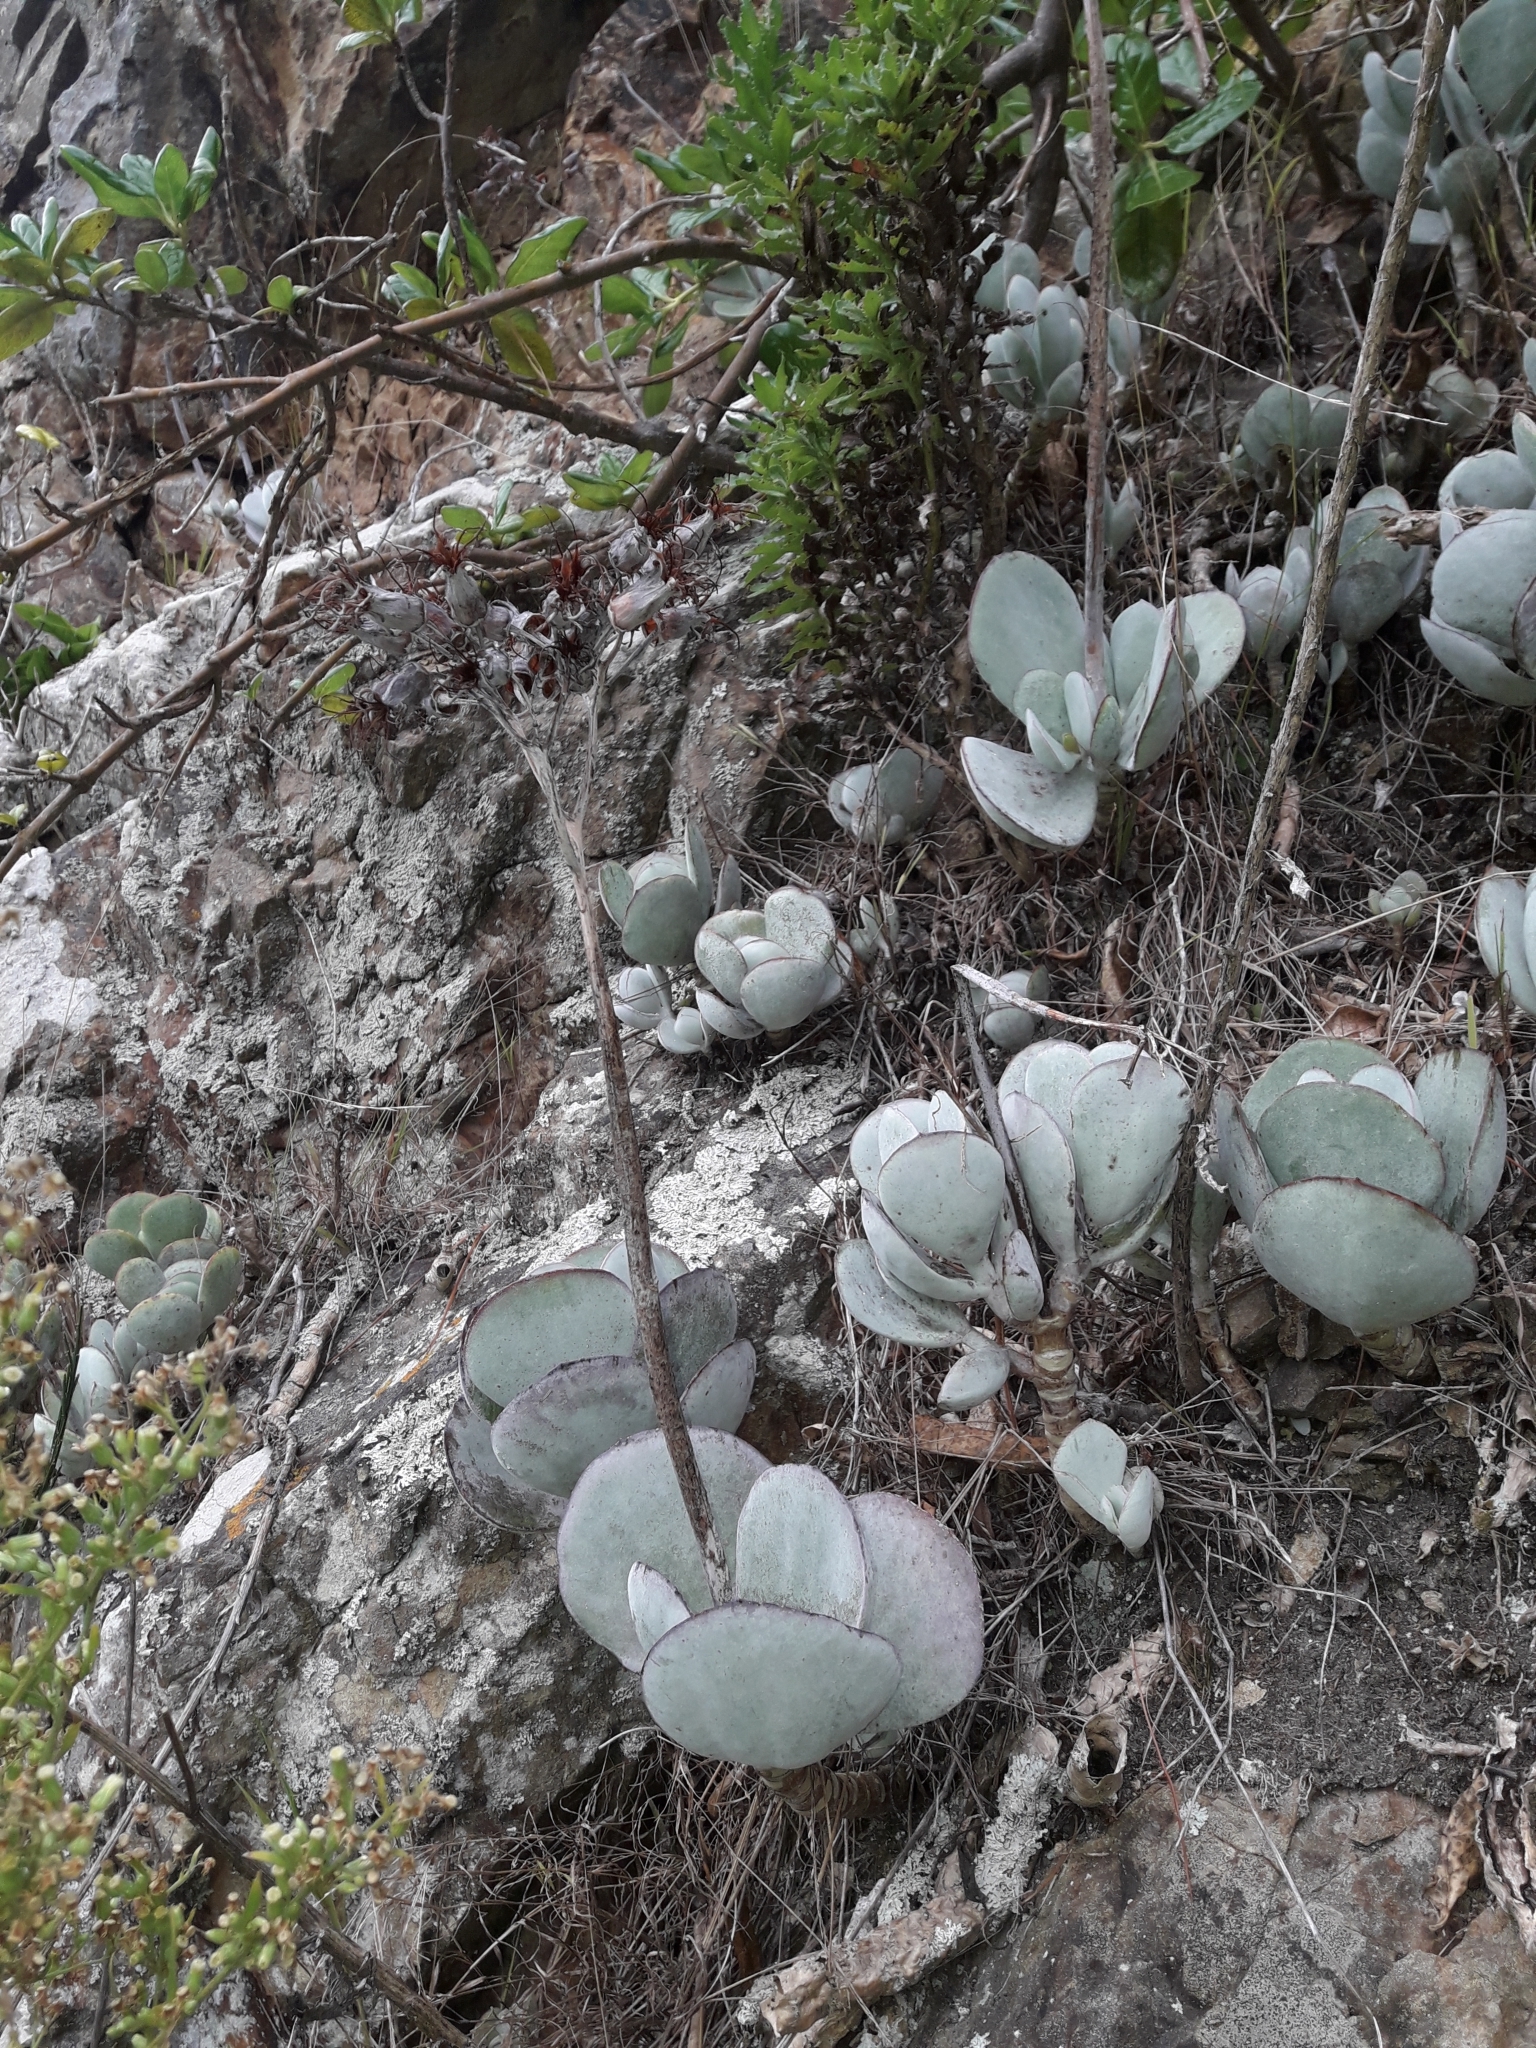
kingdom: Plantae
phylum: Tracheophyta
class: Magnoliopsida
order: Saxifragales
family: Crassulaceae
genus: Cotyledon
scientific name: Cotyledon orbiculata
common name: Pig's ear
